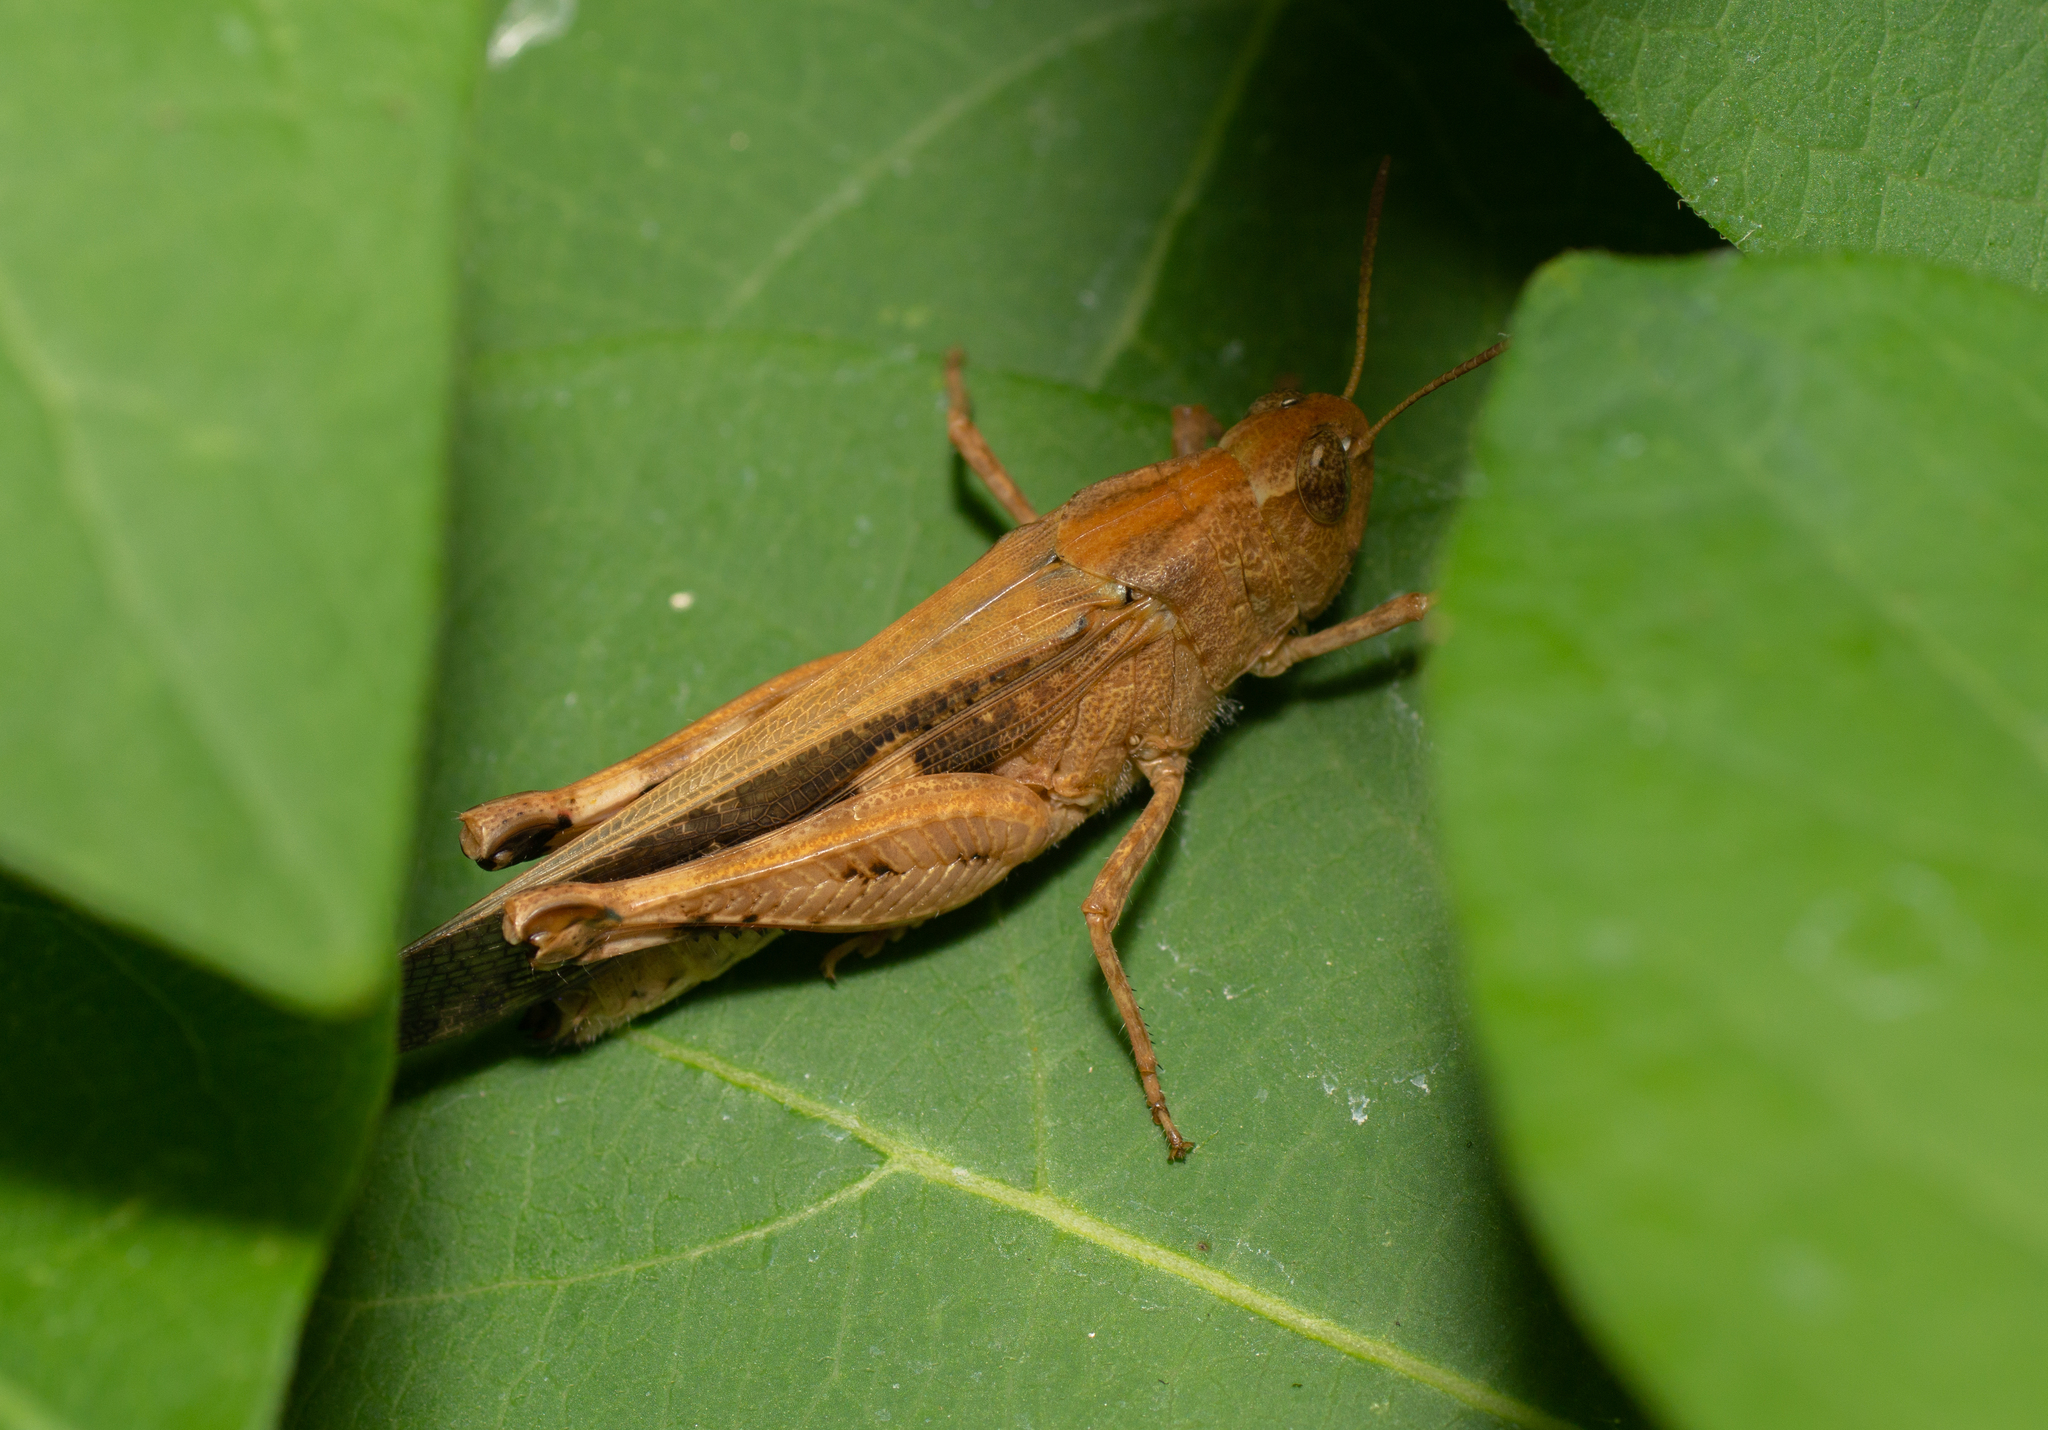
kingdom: Animalia
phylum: Arthropoda
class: Insecta
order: Orthoptera
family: Acrididae
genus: Aiolopus
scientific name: Aiolopus strepens
